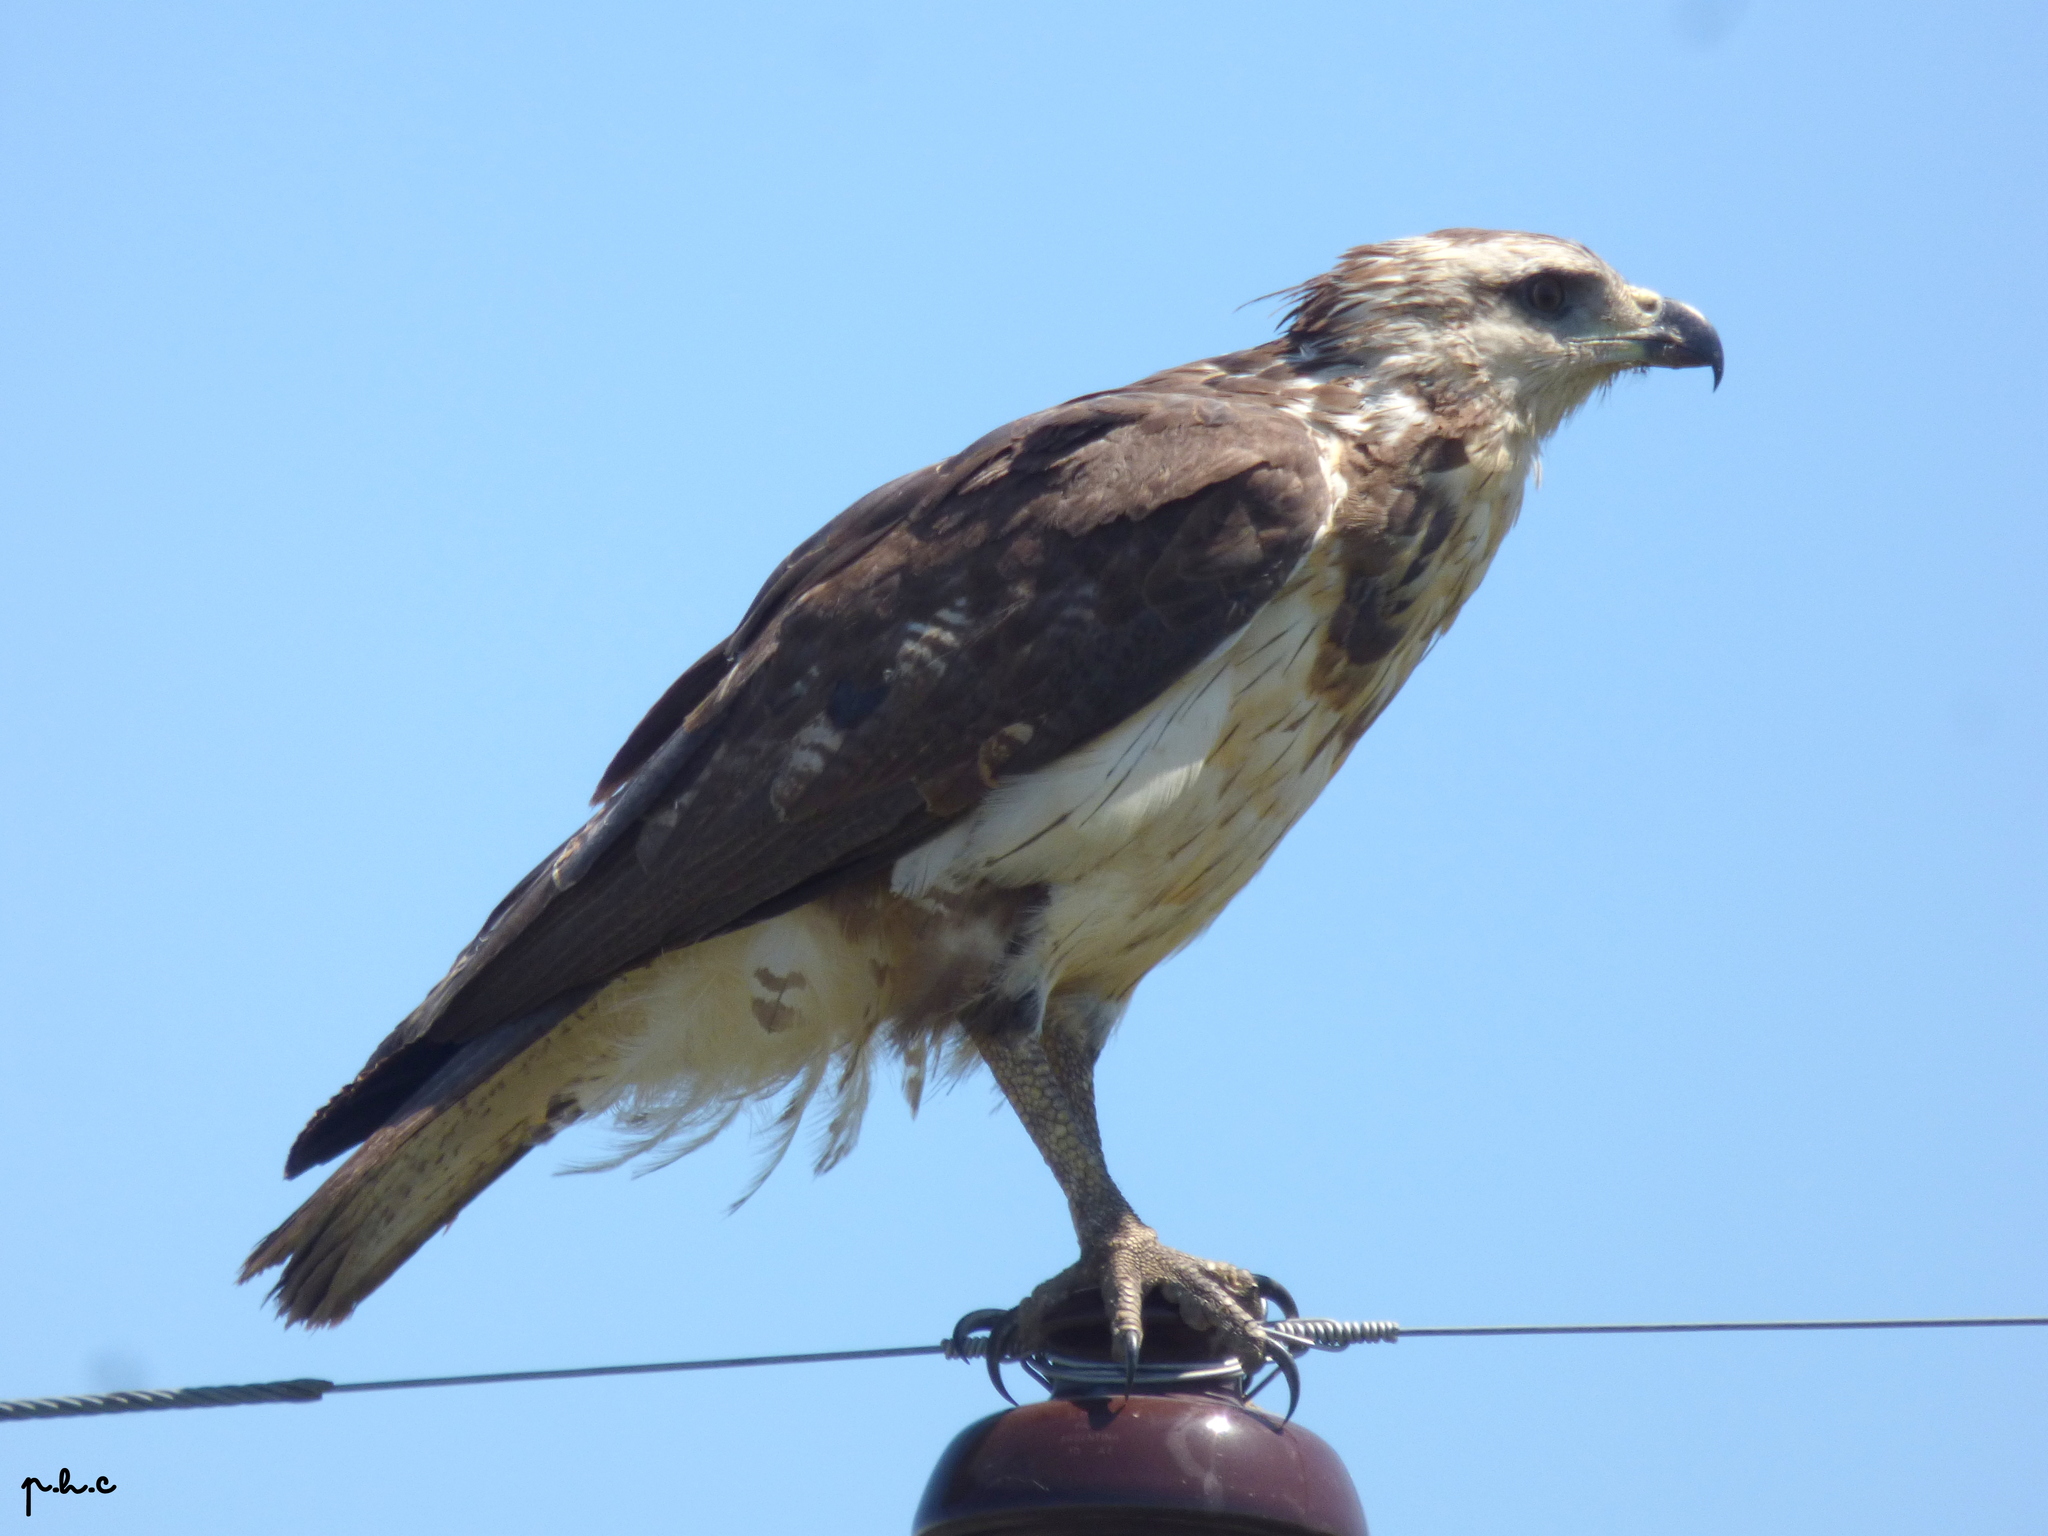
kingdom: Animalia
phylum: Chordata
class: Aves
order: Accipitriformes
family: Accipitridae
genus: Harpyhaliaetus
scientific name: Harpyhaliaetus coronatus
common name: Crowned solitary eagle
